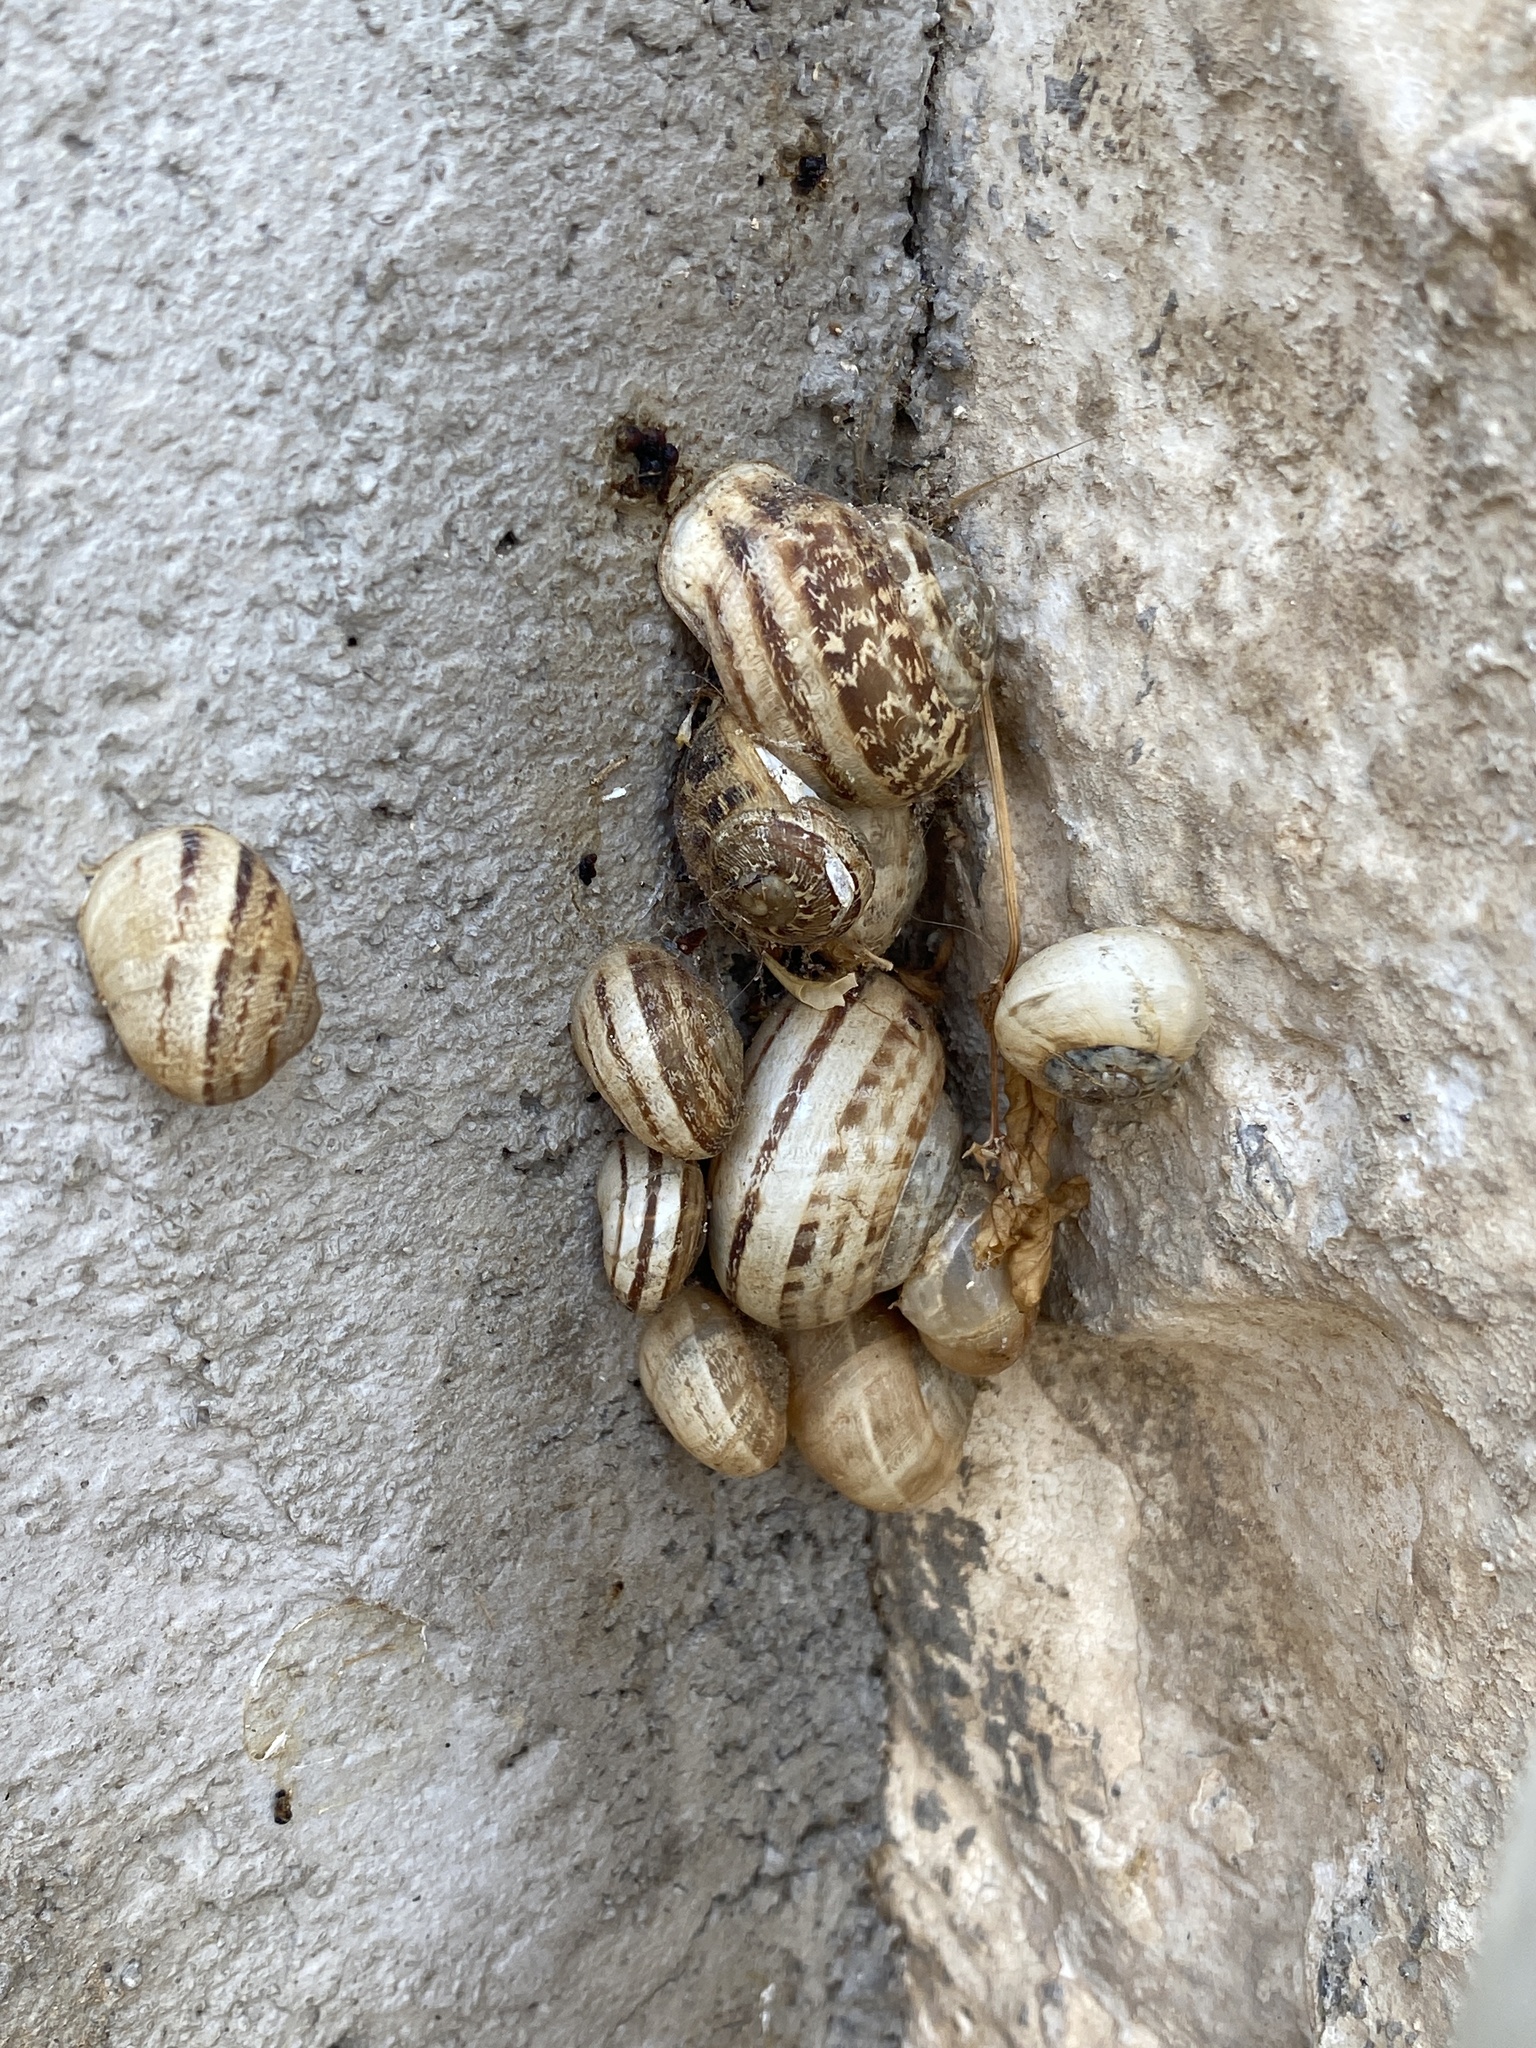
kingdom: Animalia
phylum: Mollusca
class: Gastropoda
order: Stylommatophora
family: Helicidae
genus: Eobania
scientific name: Eobania vermiculata
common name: Chocolateband snail
